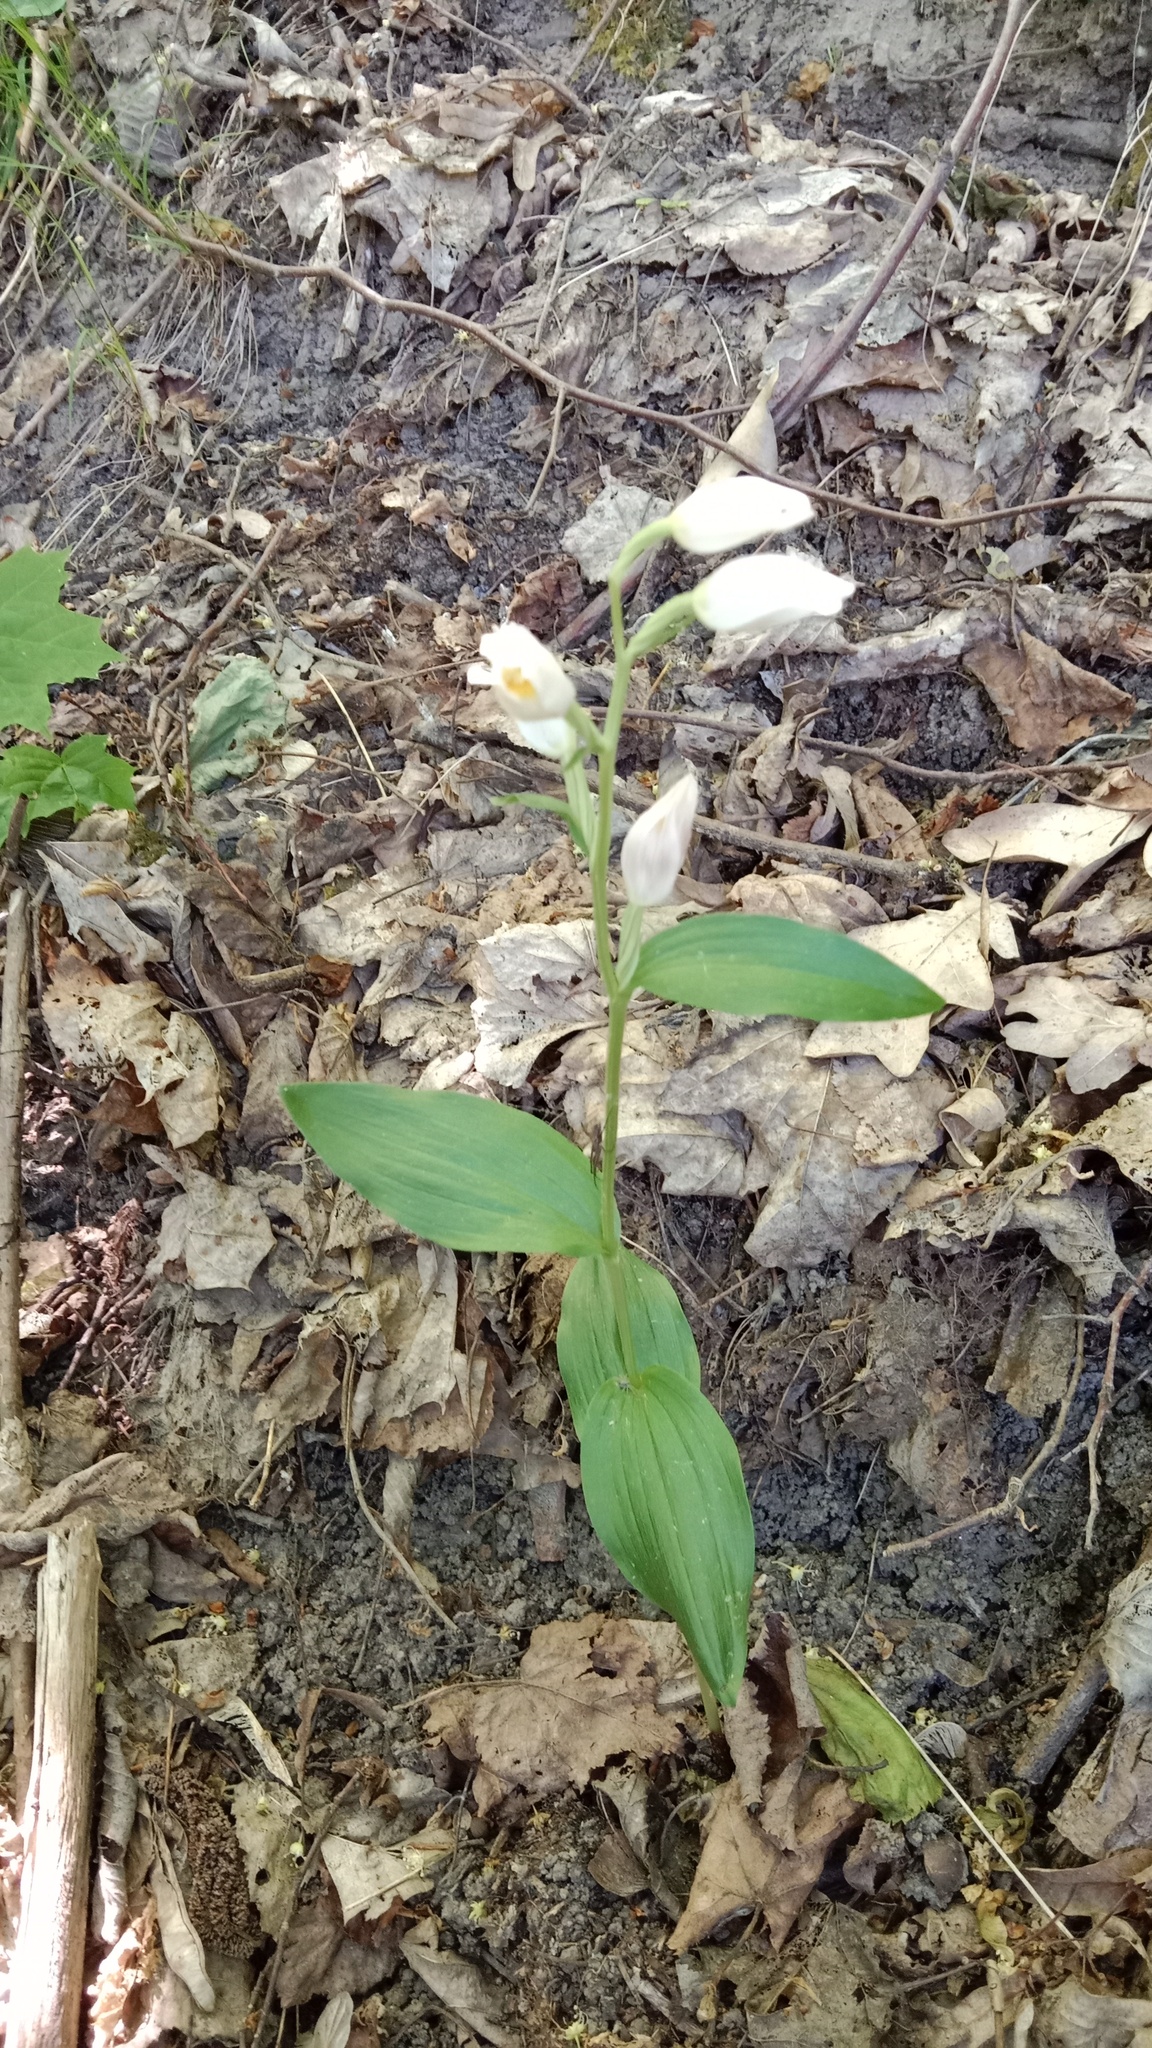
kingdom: Plantae
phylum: Tracheophyta
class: Liliopsida
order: Asparagales
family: Orchidaceae
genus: Cephalanthera
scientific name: Cephalanthera damasonium
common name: White helleborine
